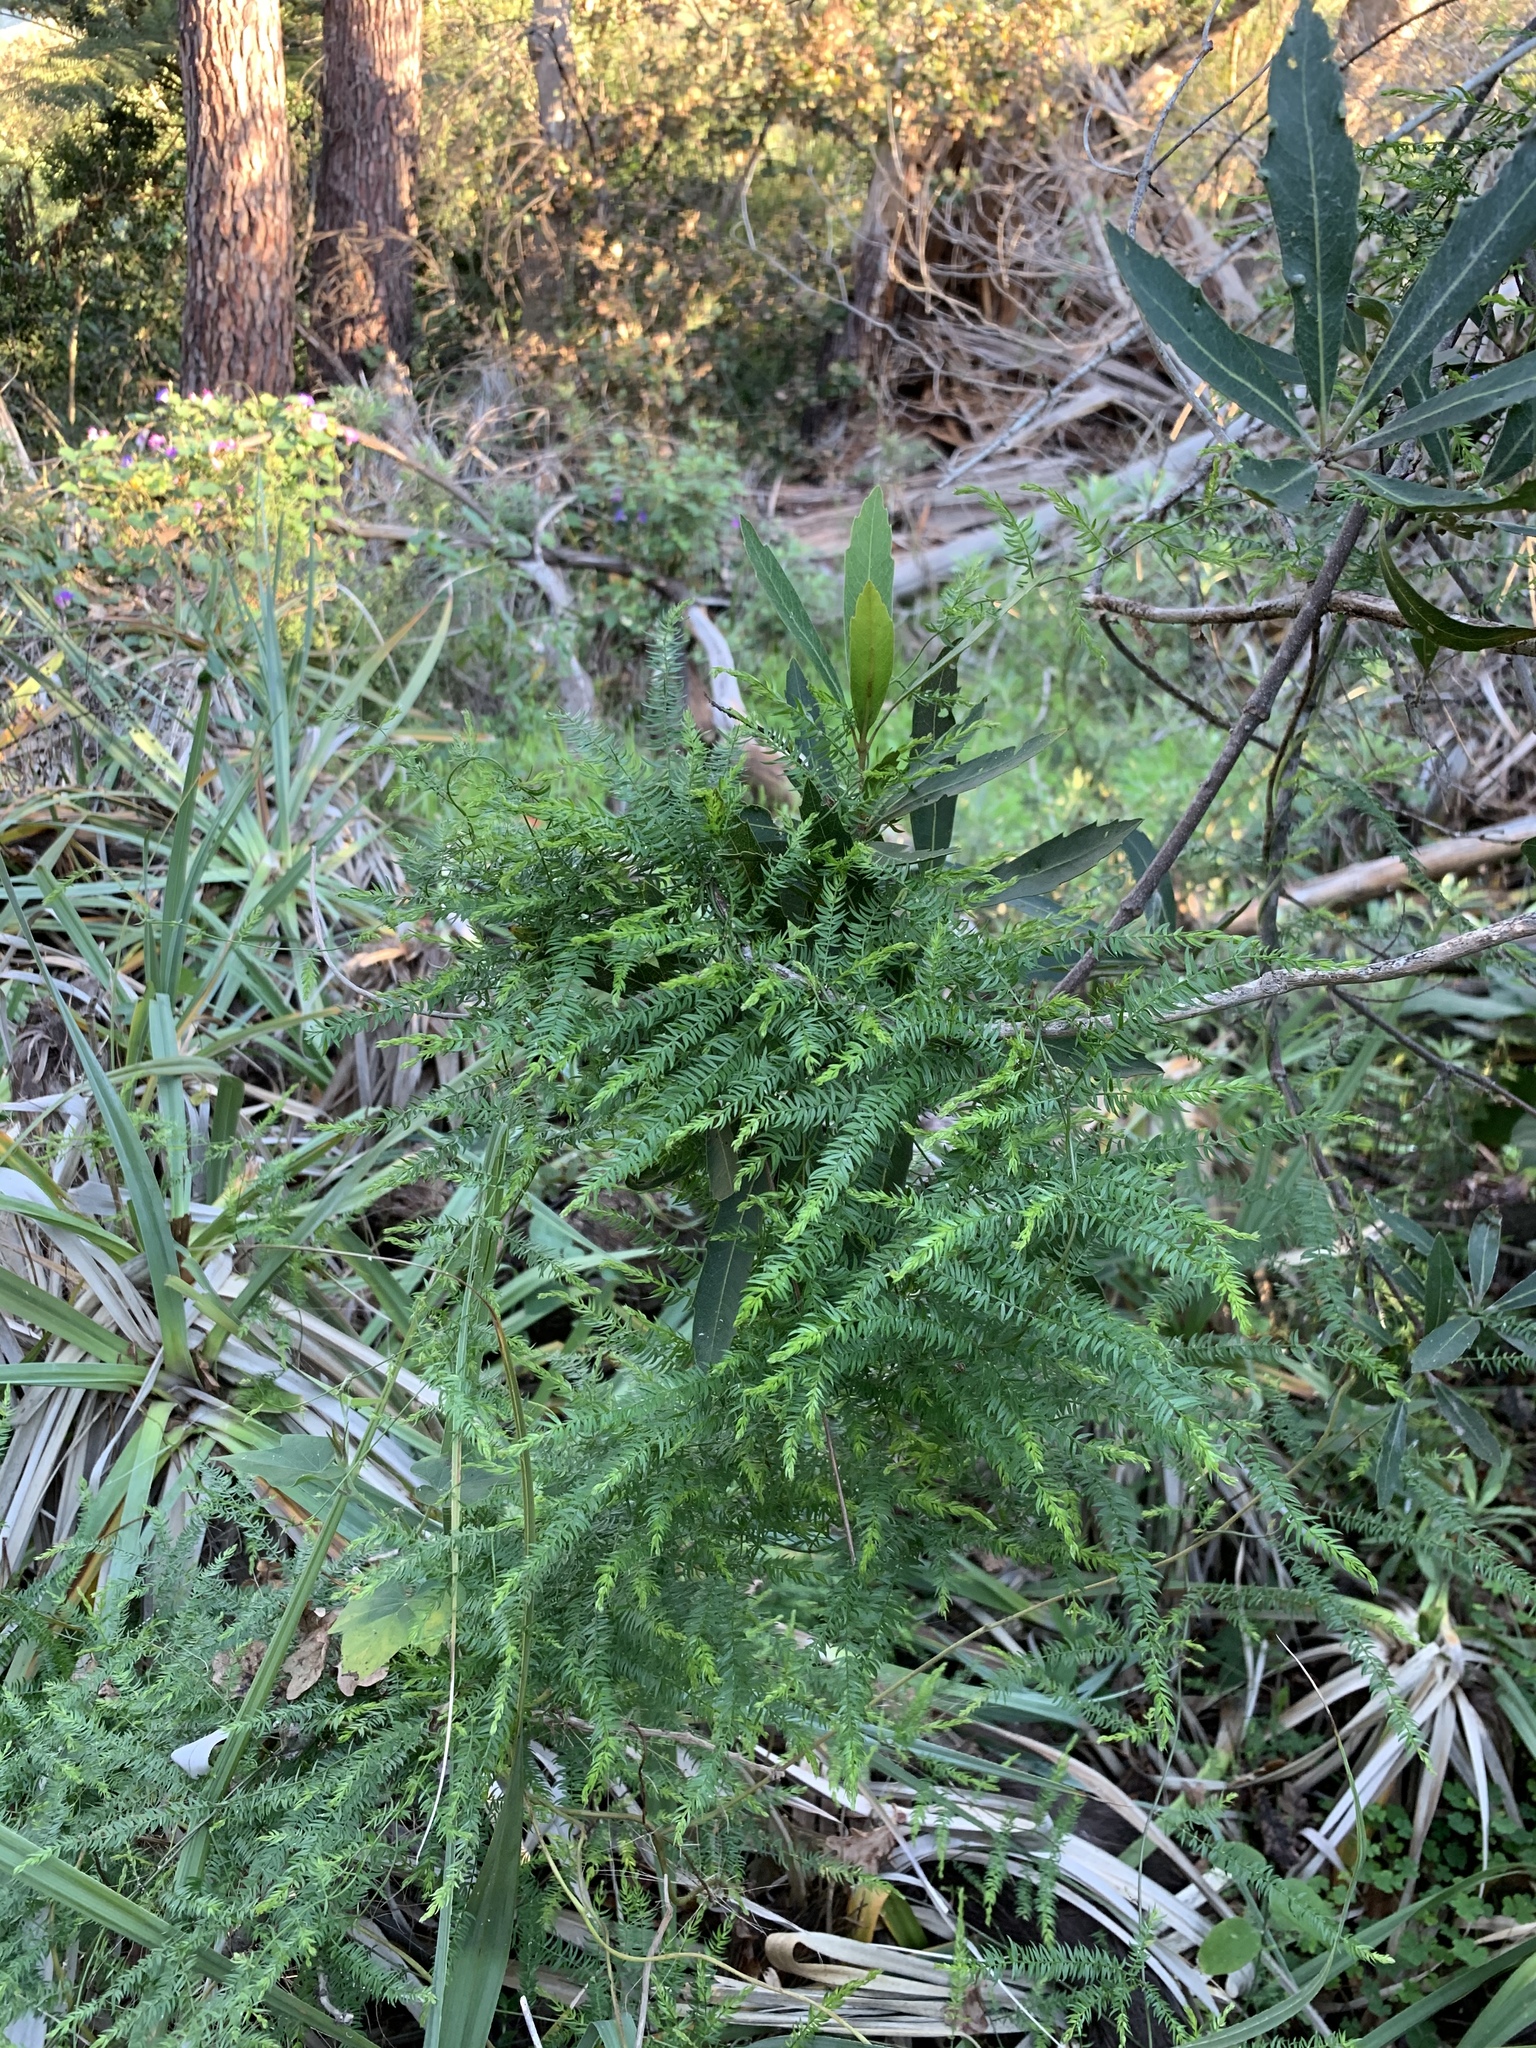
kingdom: Plantae
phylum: Tracheophyta
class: Liliopsida
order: Asparagales
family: Asparagaceae
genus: Asparagus
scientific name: Asparagus scandens
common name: Asparagus-fern
